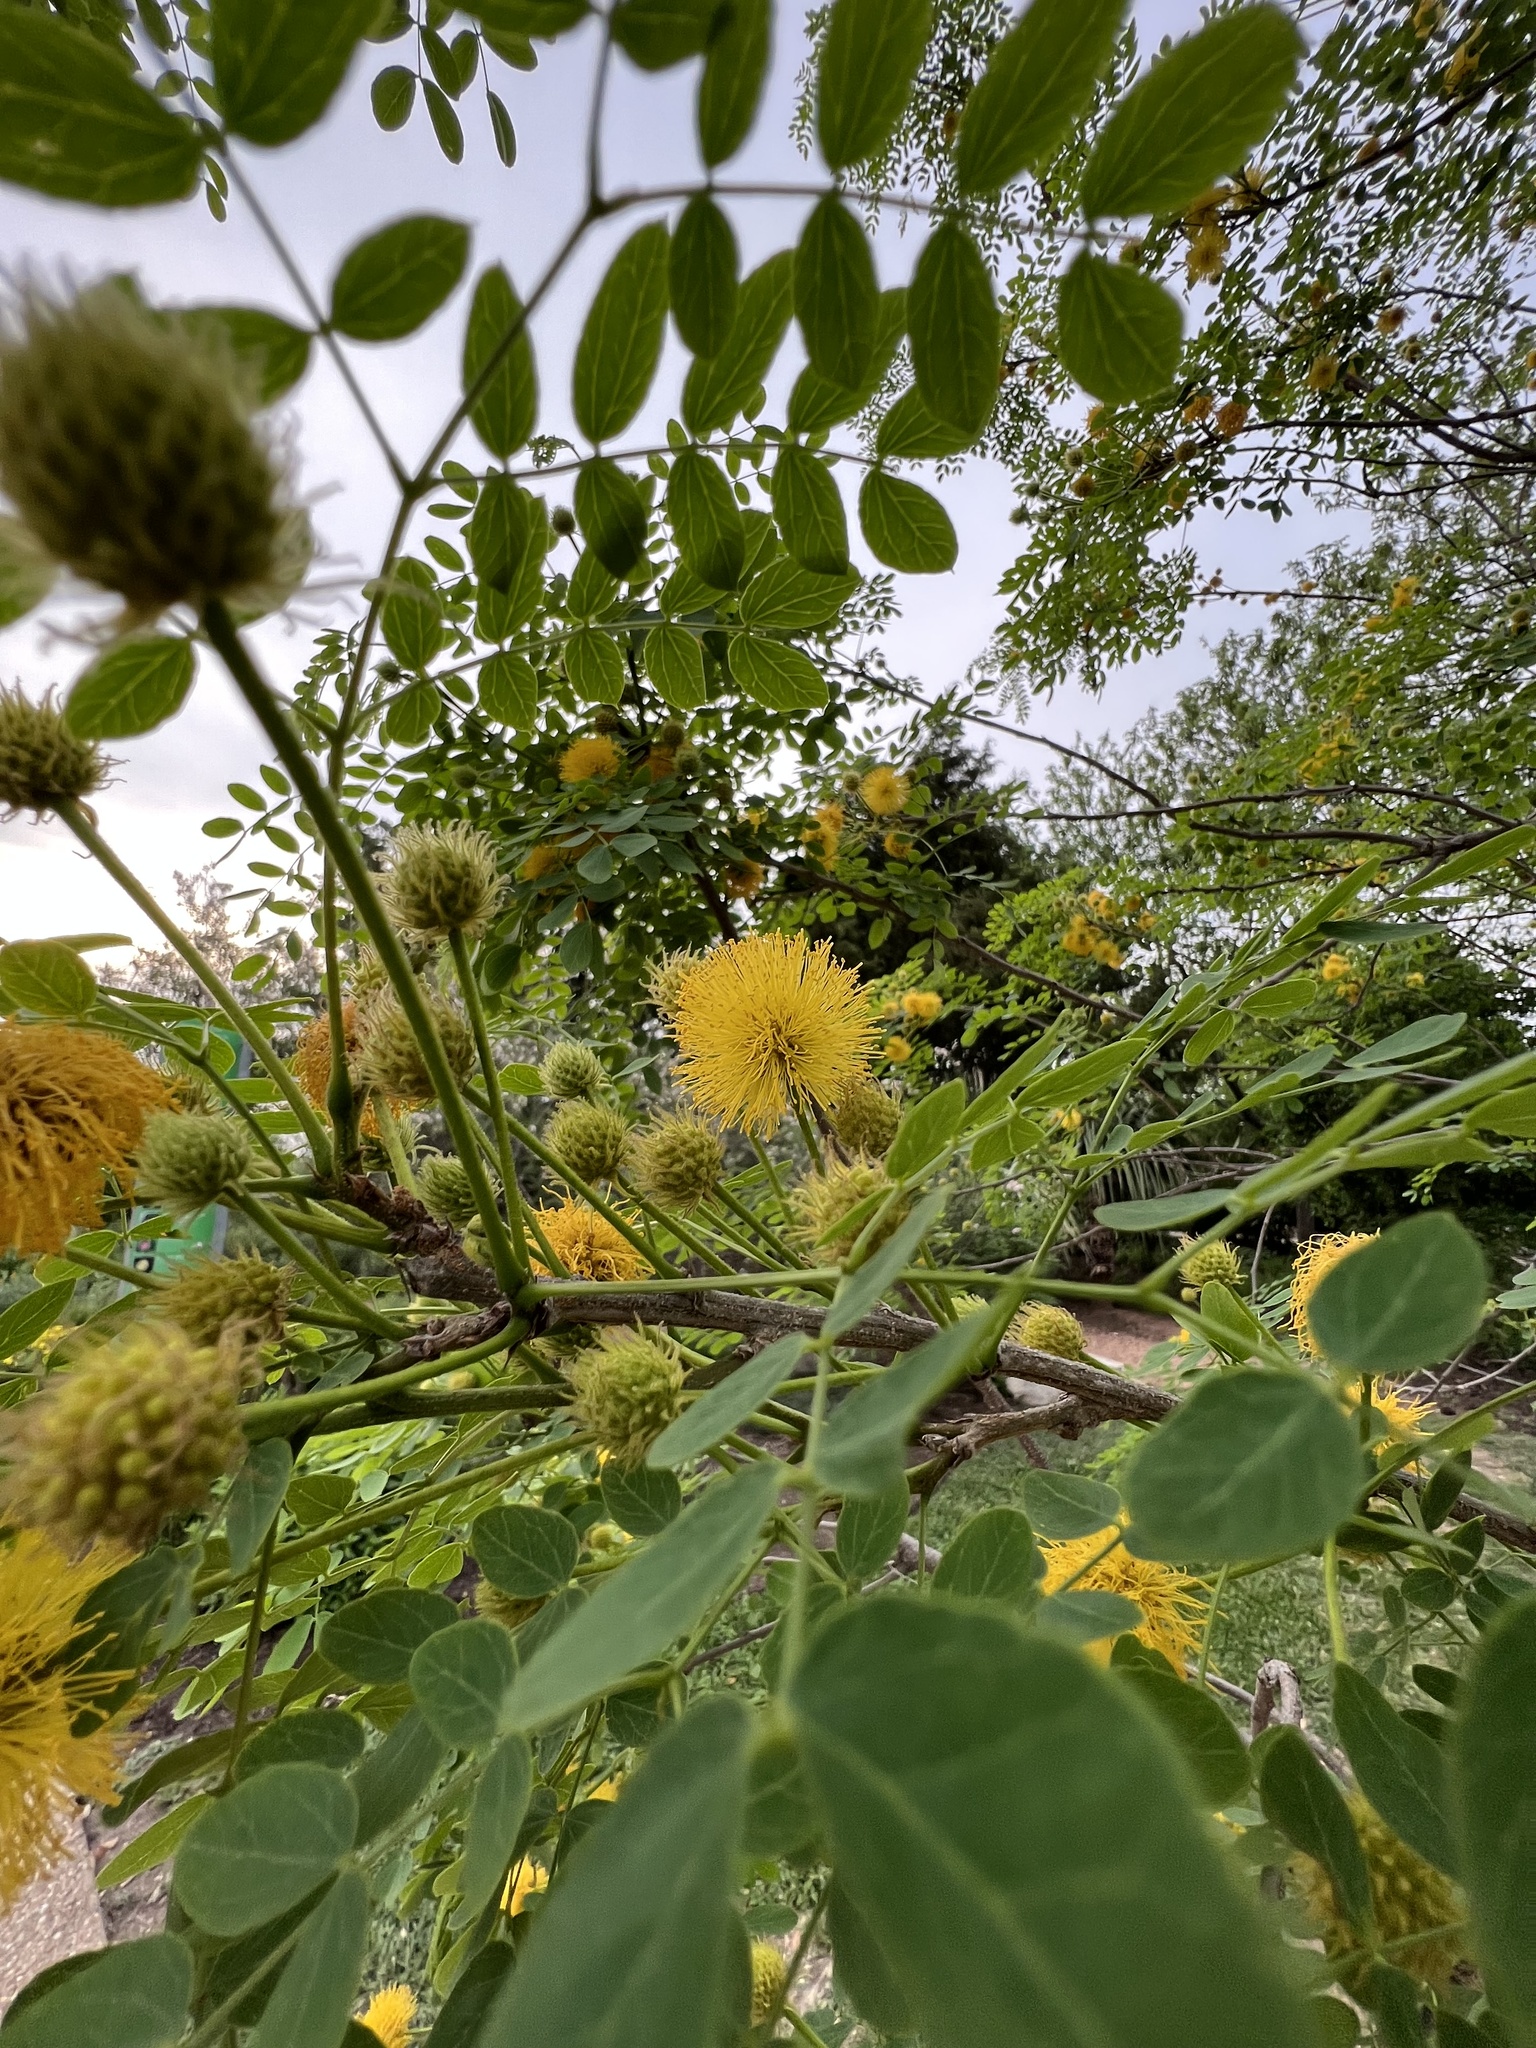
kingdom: Plantae
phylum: Tracheophyta
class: Magnoliopsida
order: Fabales
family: Fabaceae
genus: Leucaena
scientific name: Leucaena retusa
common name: Littleleaf leadtree
